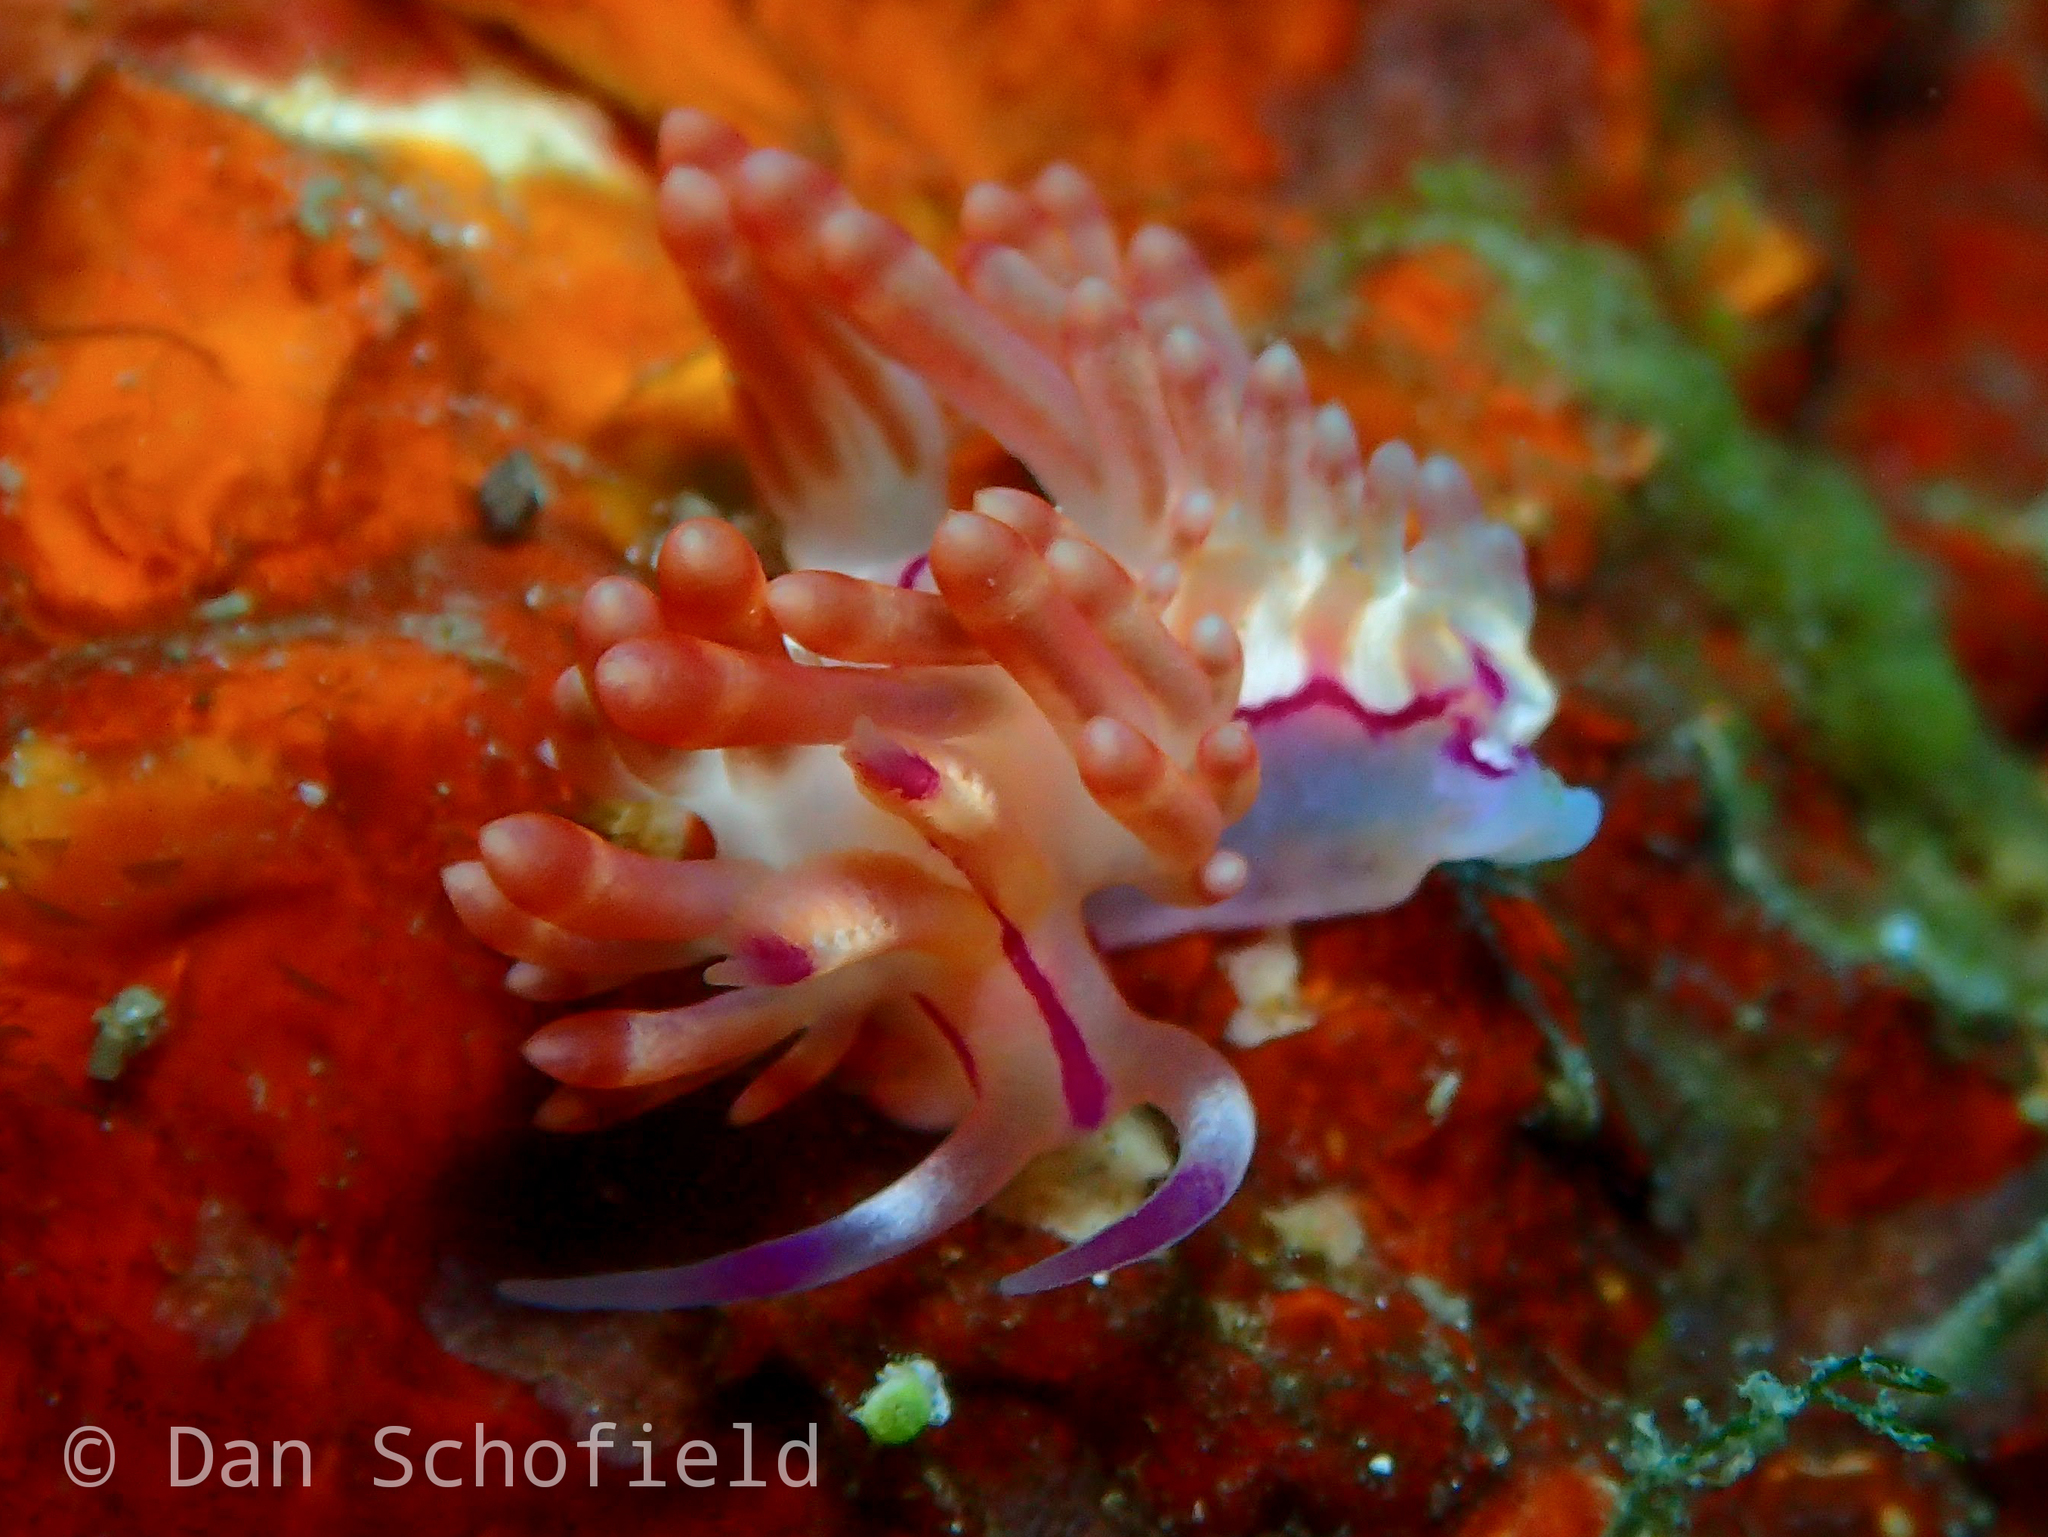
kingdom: Animalia
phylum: Mollusca
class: Gastropoda
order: Nudibranchia
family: Flabellinidae
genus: Coryphellina
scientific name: Coryphellina flamma
